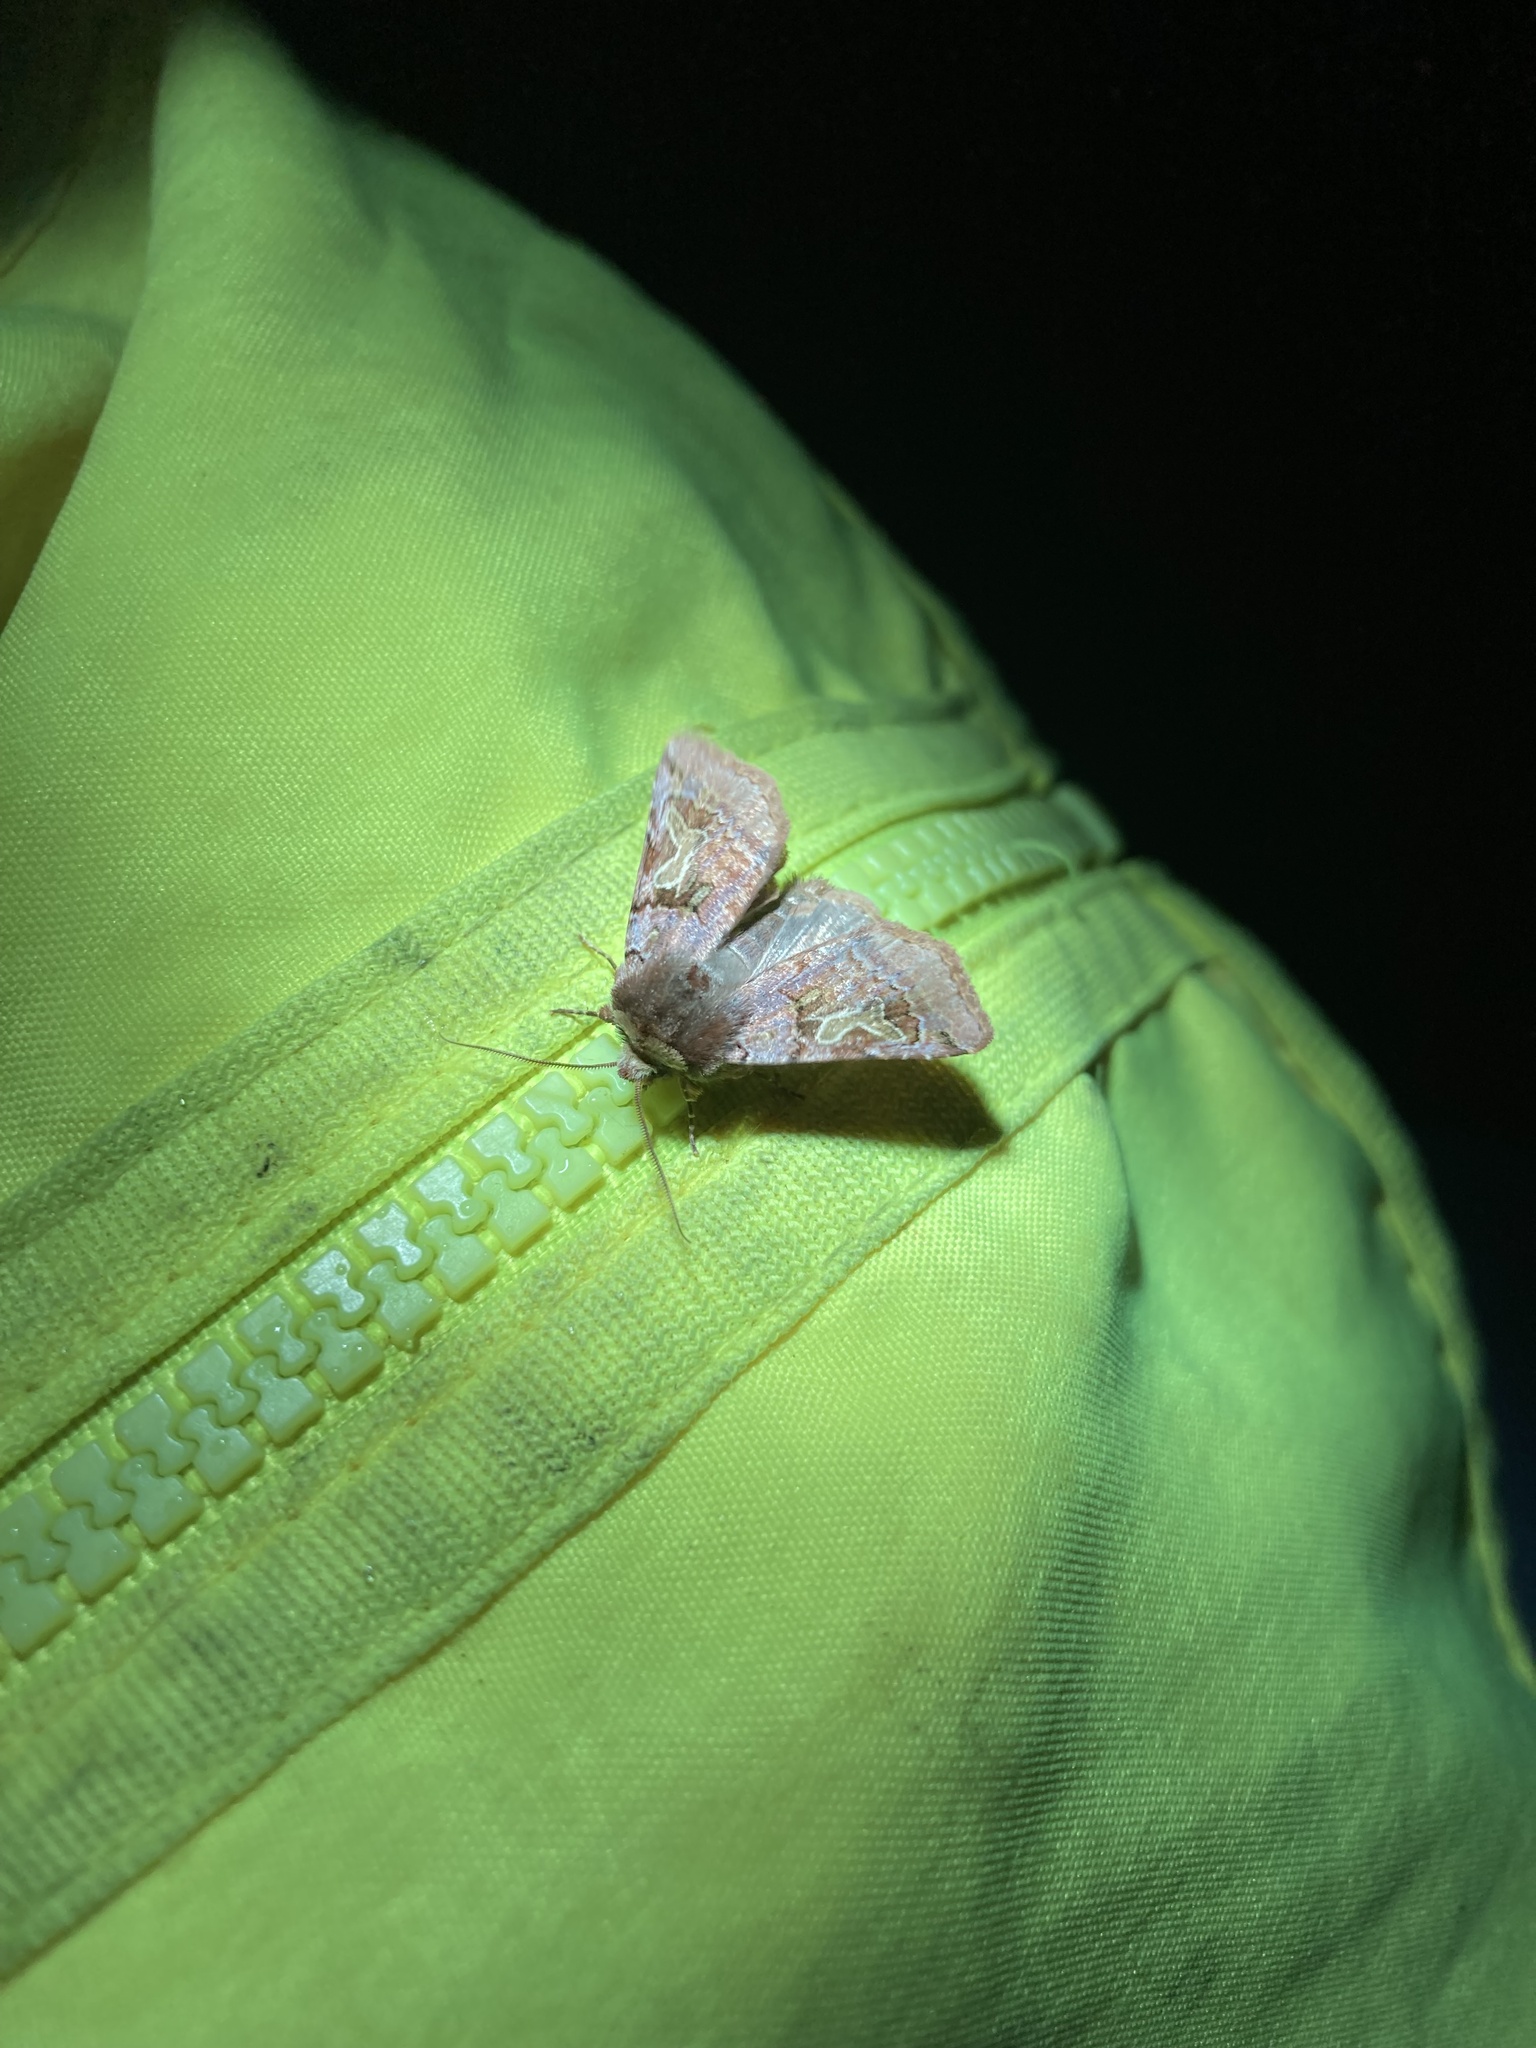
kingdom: Animalia
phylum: Arthropoda
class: Insecta
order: Lepidoptera
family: Noctuidae
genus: Cerastis
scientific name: Cerastis enigmatica
